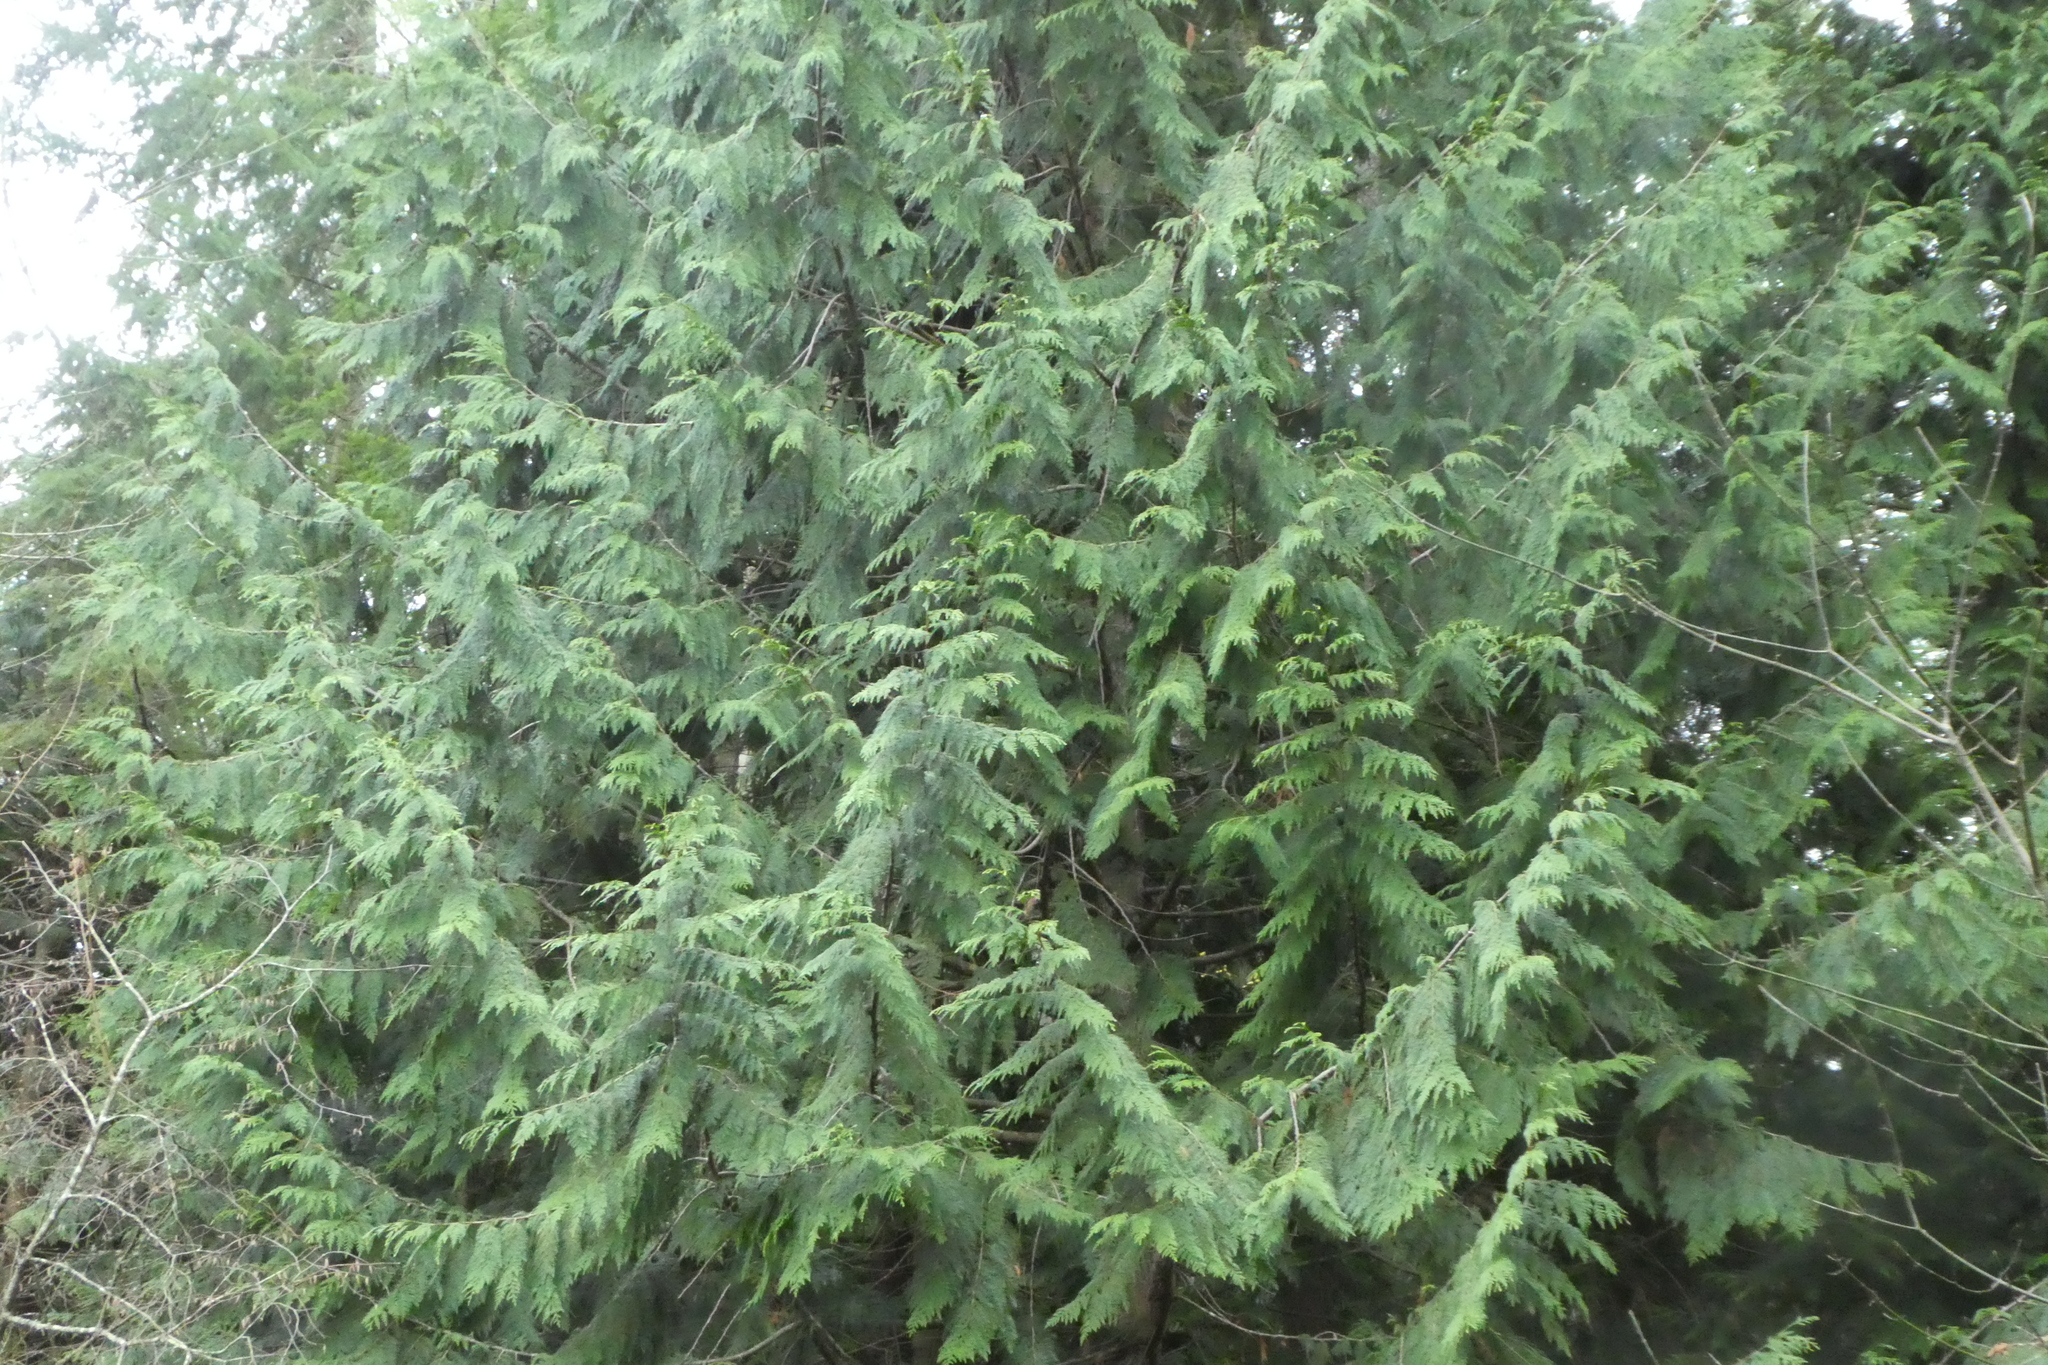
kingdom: Plantae
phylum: Tracheophyta
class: Pinopsida
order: Pinales
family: Cupressaceae
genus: Thuja
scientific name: Thuja plicata
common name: Western red-cedar
